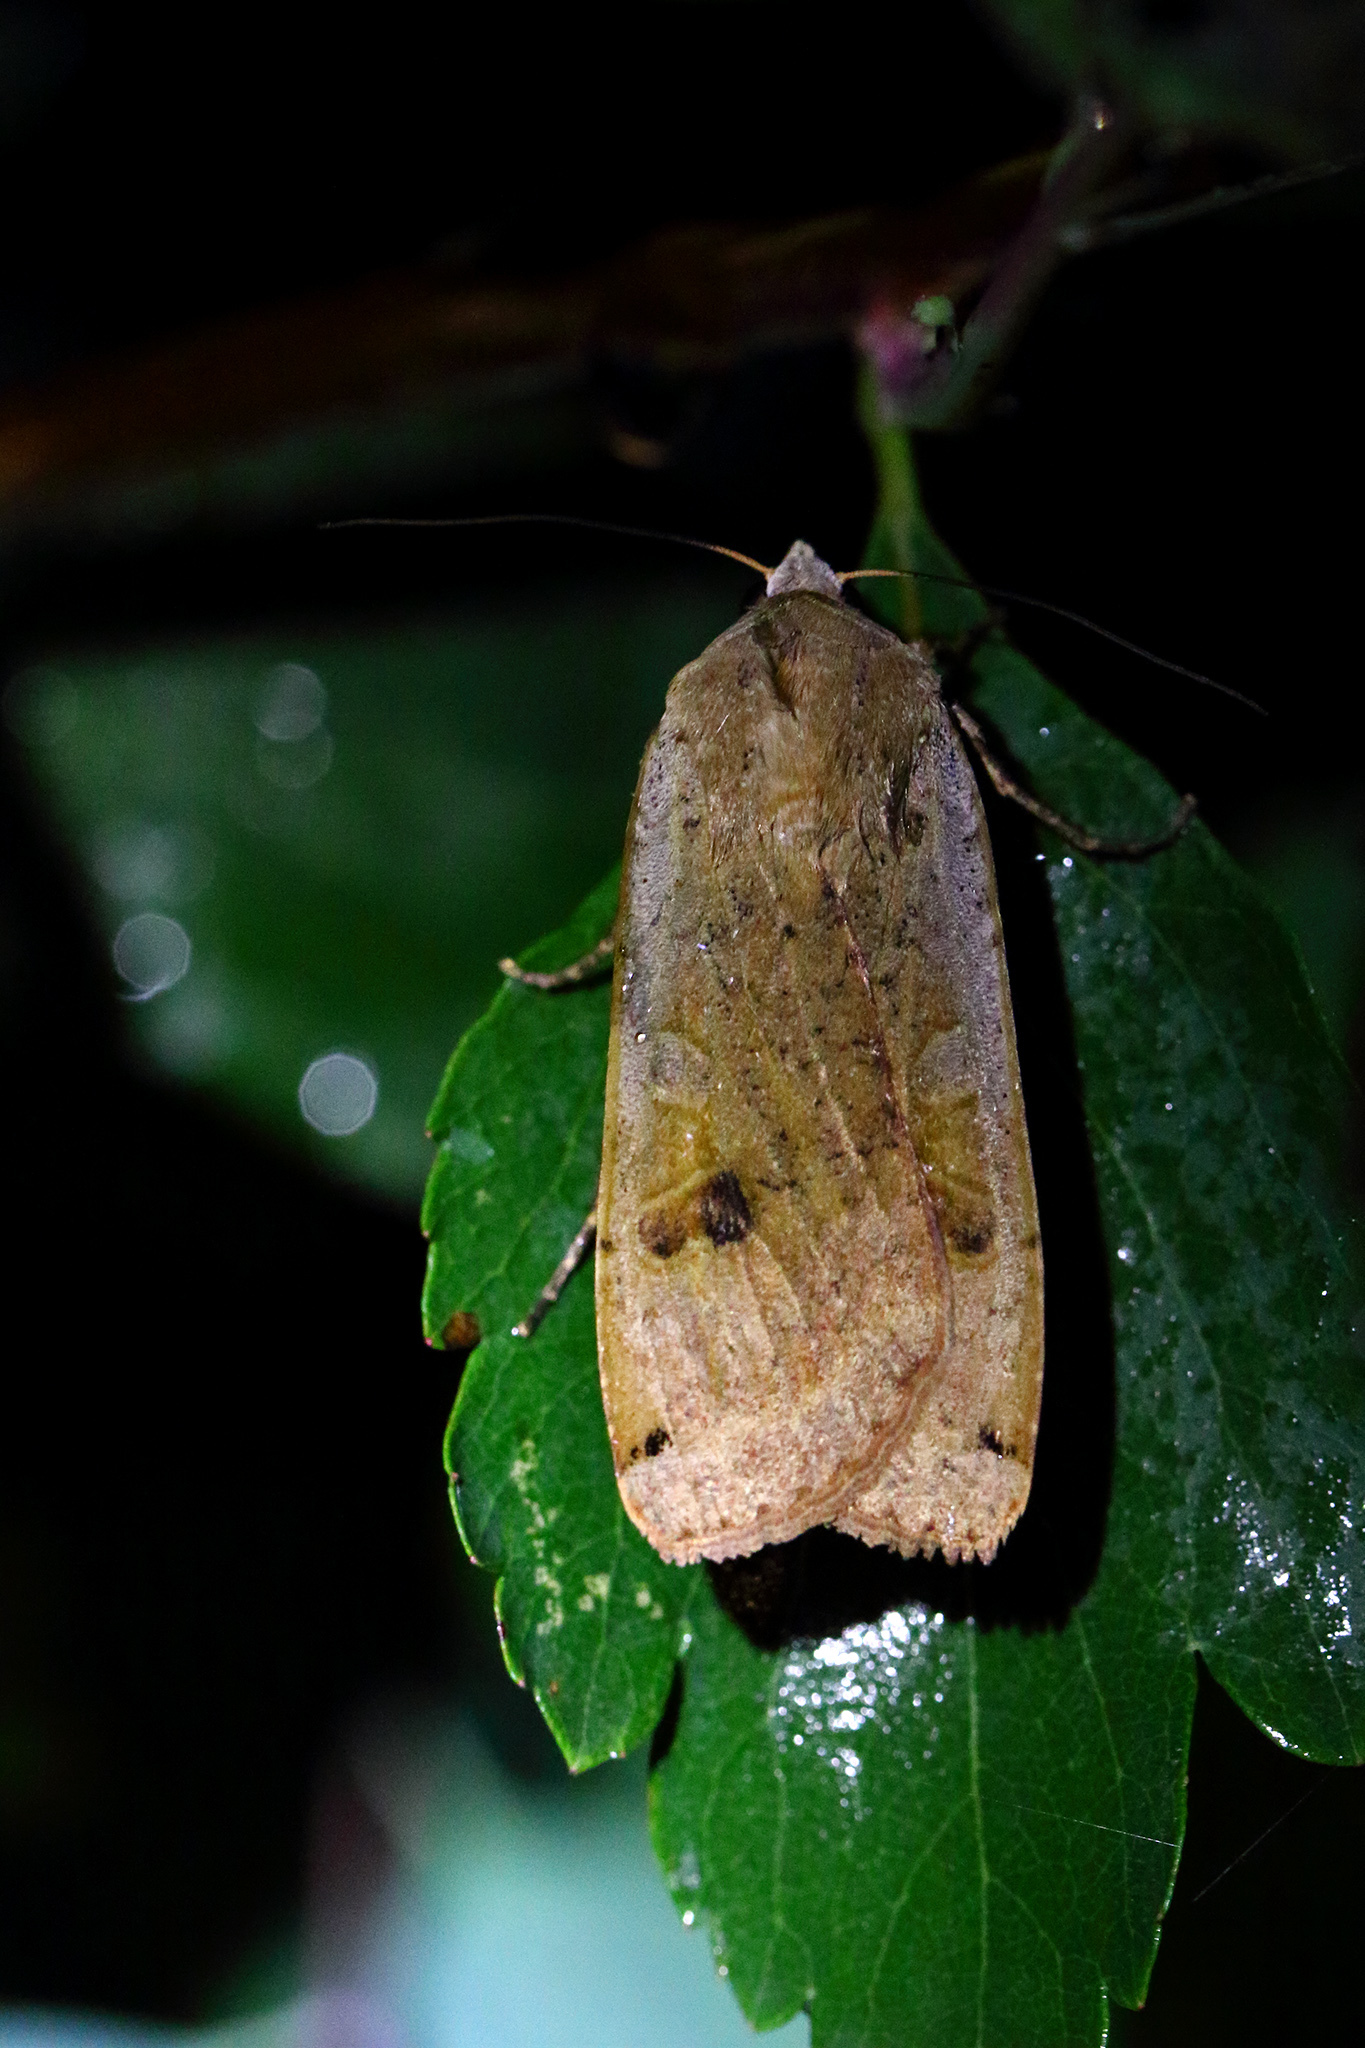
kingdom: Animalia
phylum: Arthropoda
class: Insecta
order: Lepidoptera
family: Noctuidae
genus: Noctua
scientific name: Noctua pronuba
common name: Large yellow underwing
